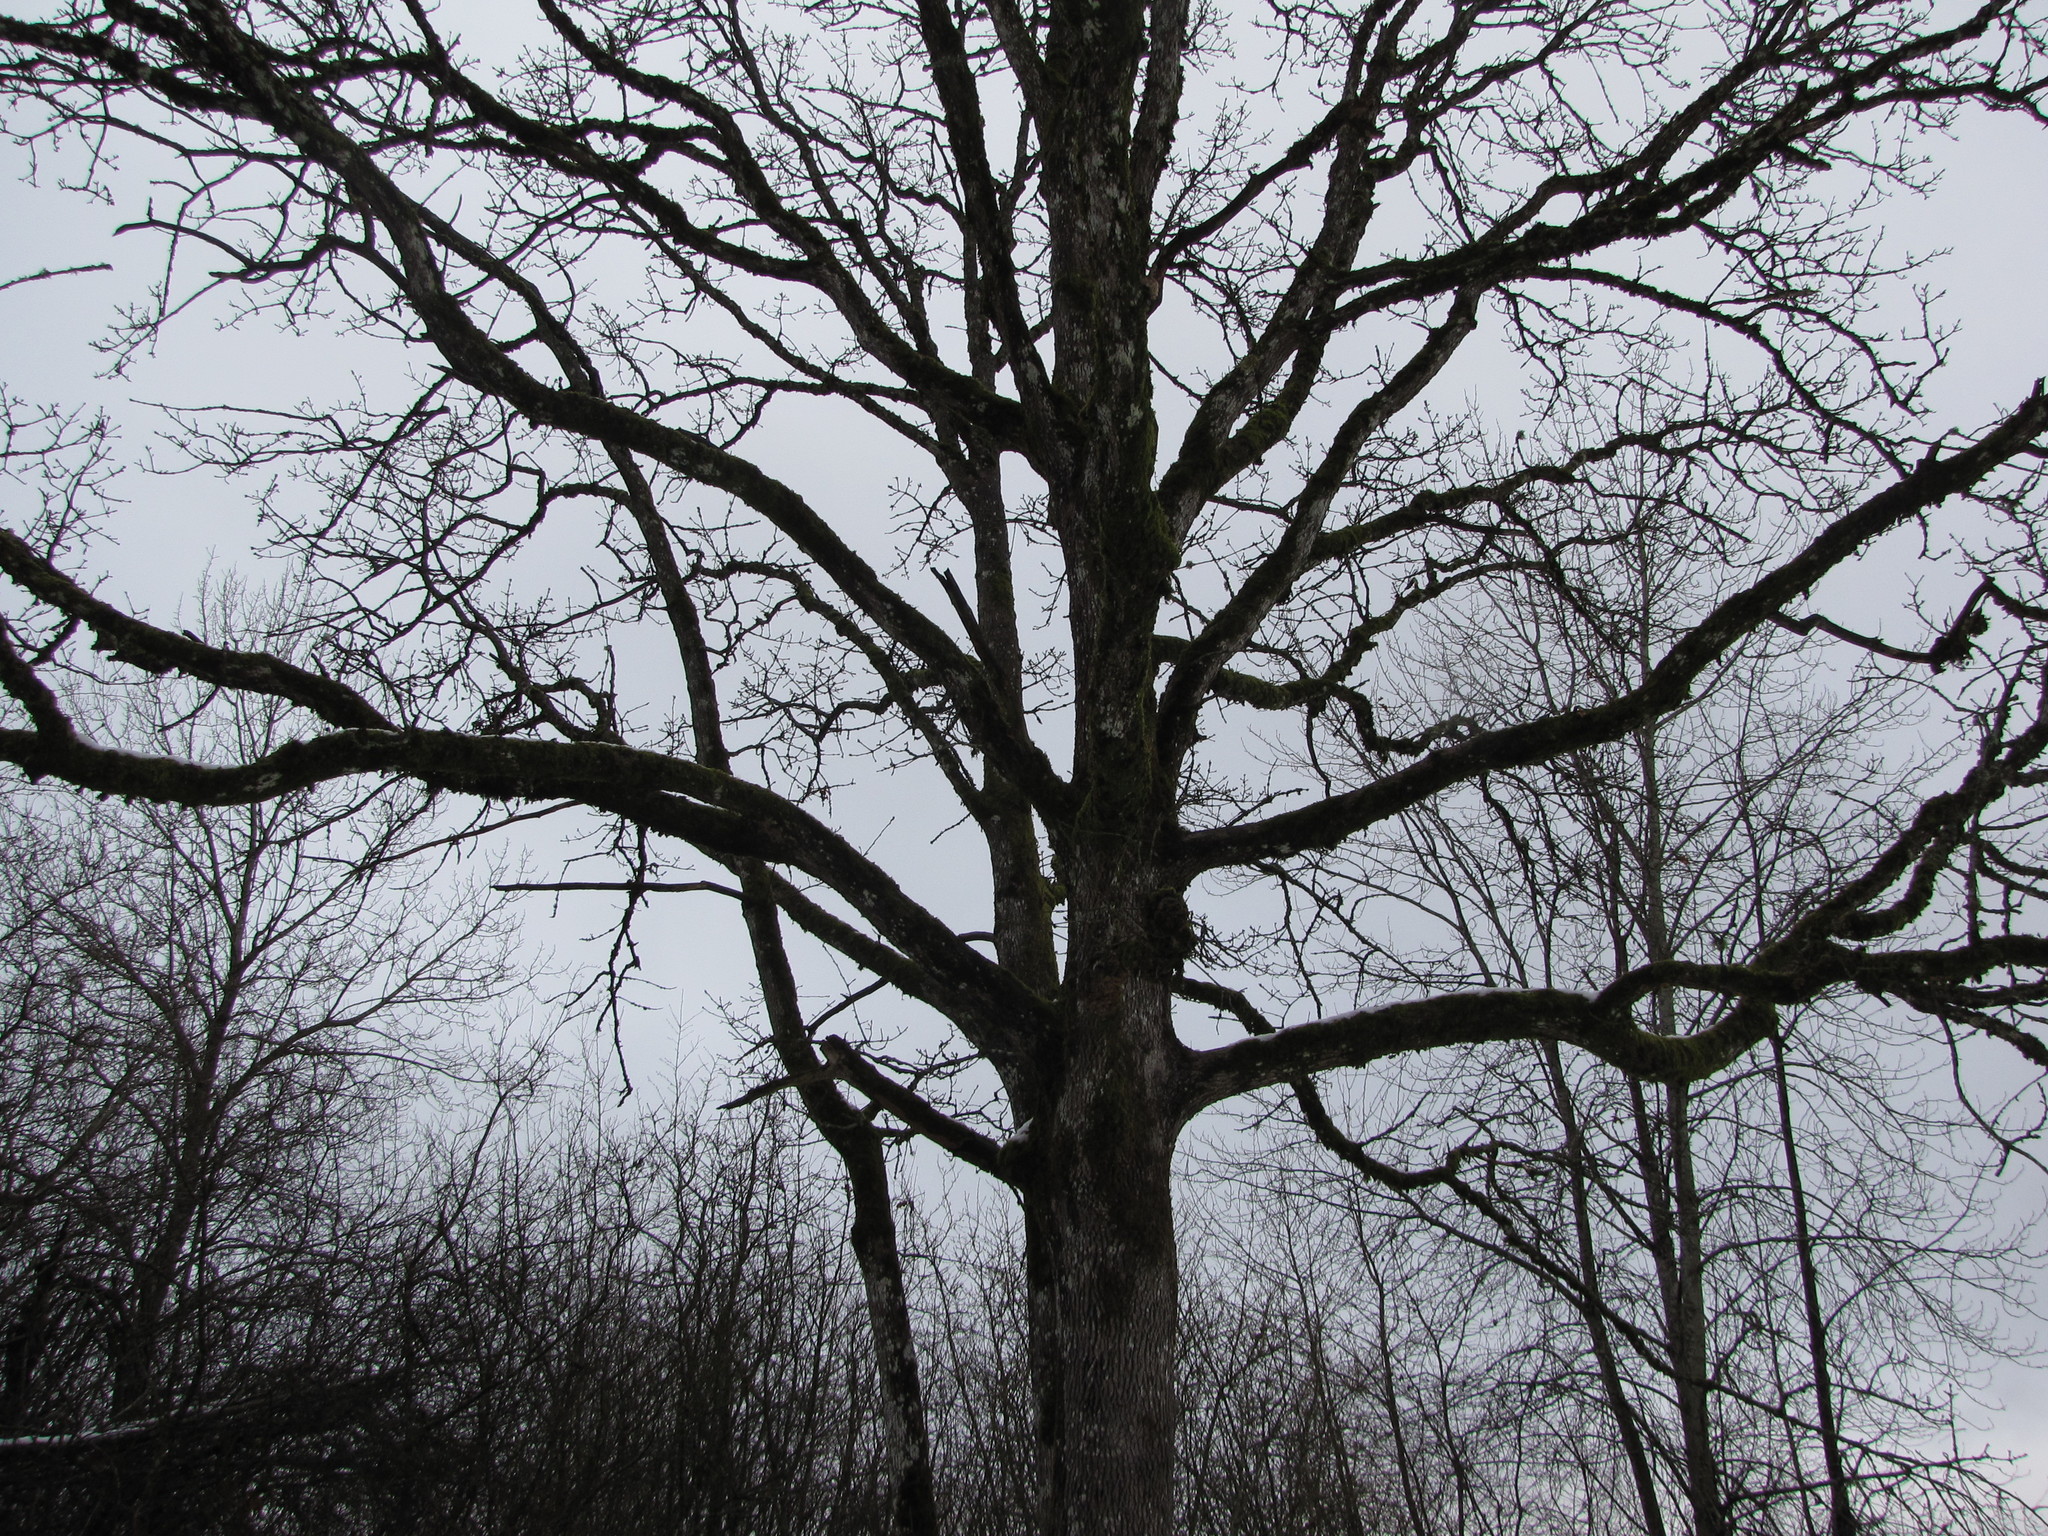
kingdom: Plantae
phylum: Tracheophyta
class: Magnoliopsida
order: Fagales
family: Fagaceae
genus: Quercus
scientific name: Quercus garryana
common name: Garry oak
